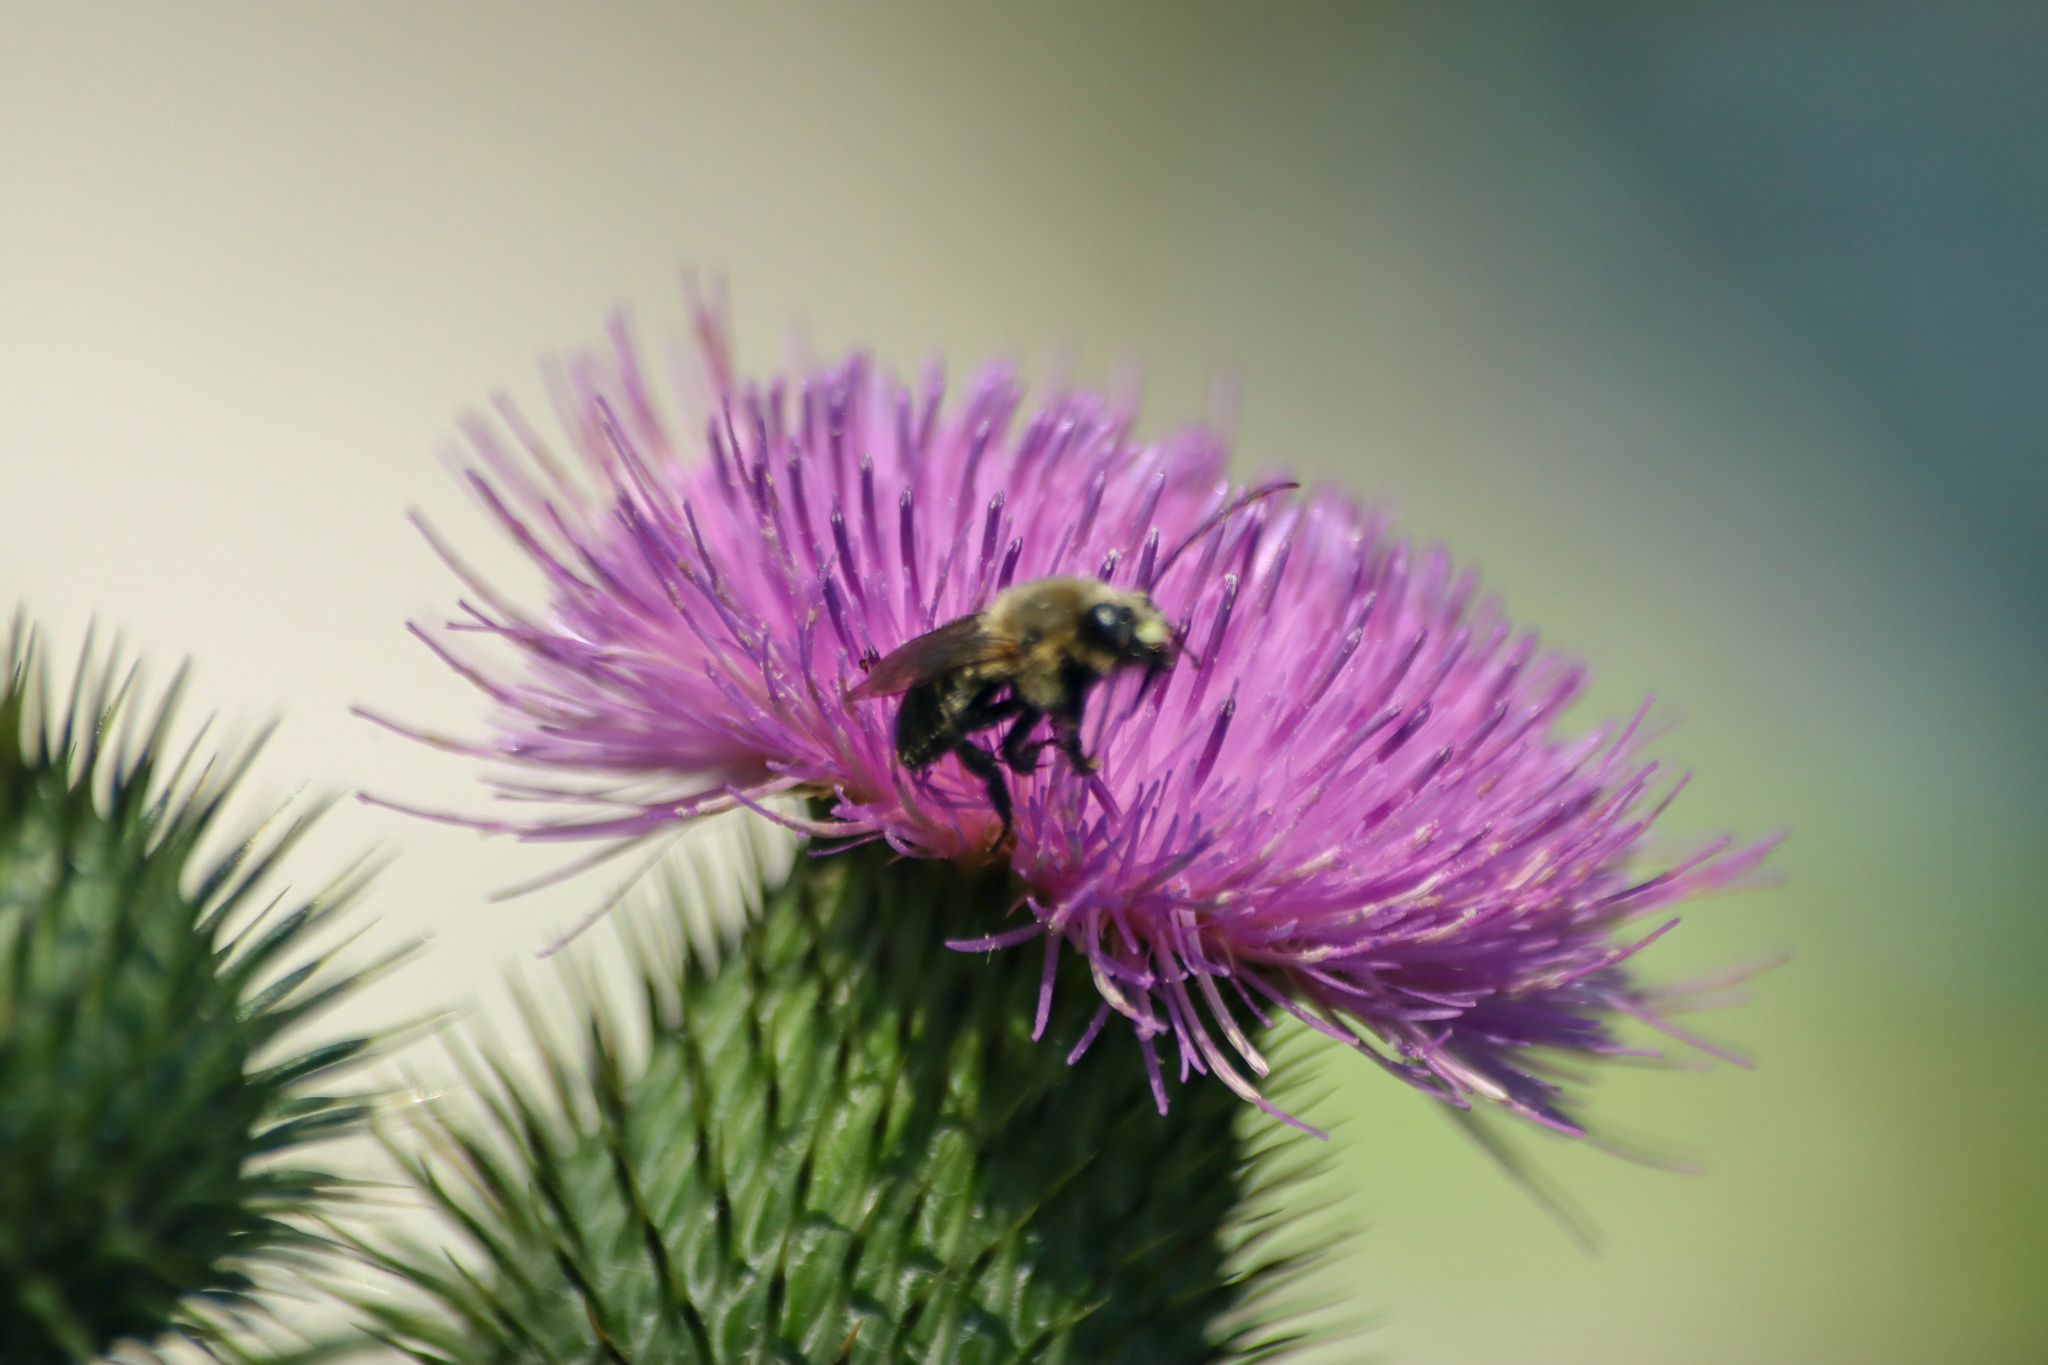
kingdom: Animalia
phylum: Arthropoda
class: Insecta
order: Hymenoptera
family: Apidae
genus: Melissodes
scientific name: Melissodes desponsus
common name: Thistle long-horned bee
